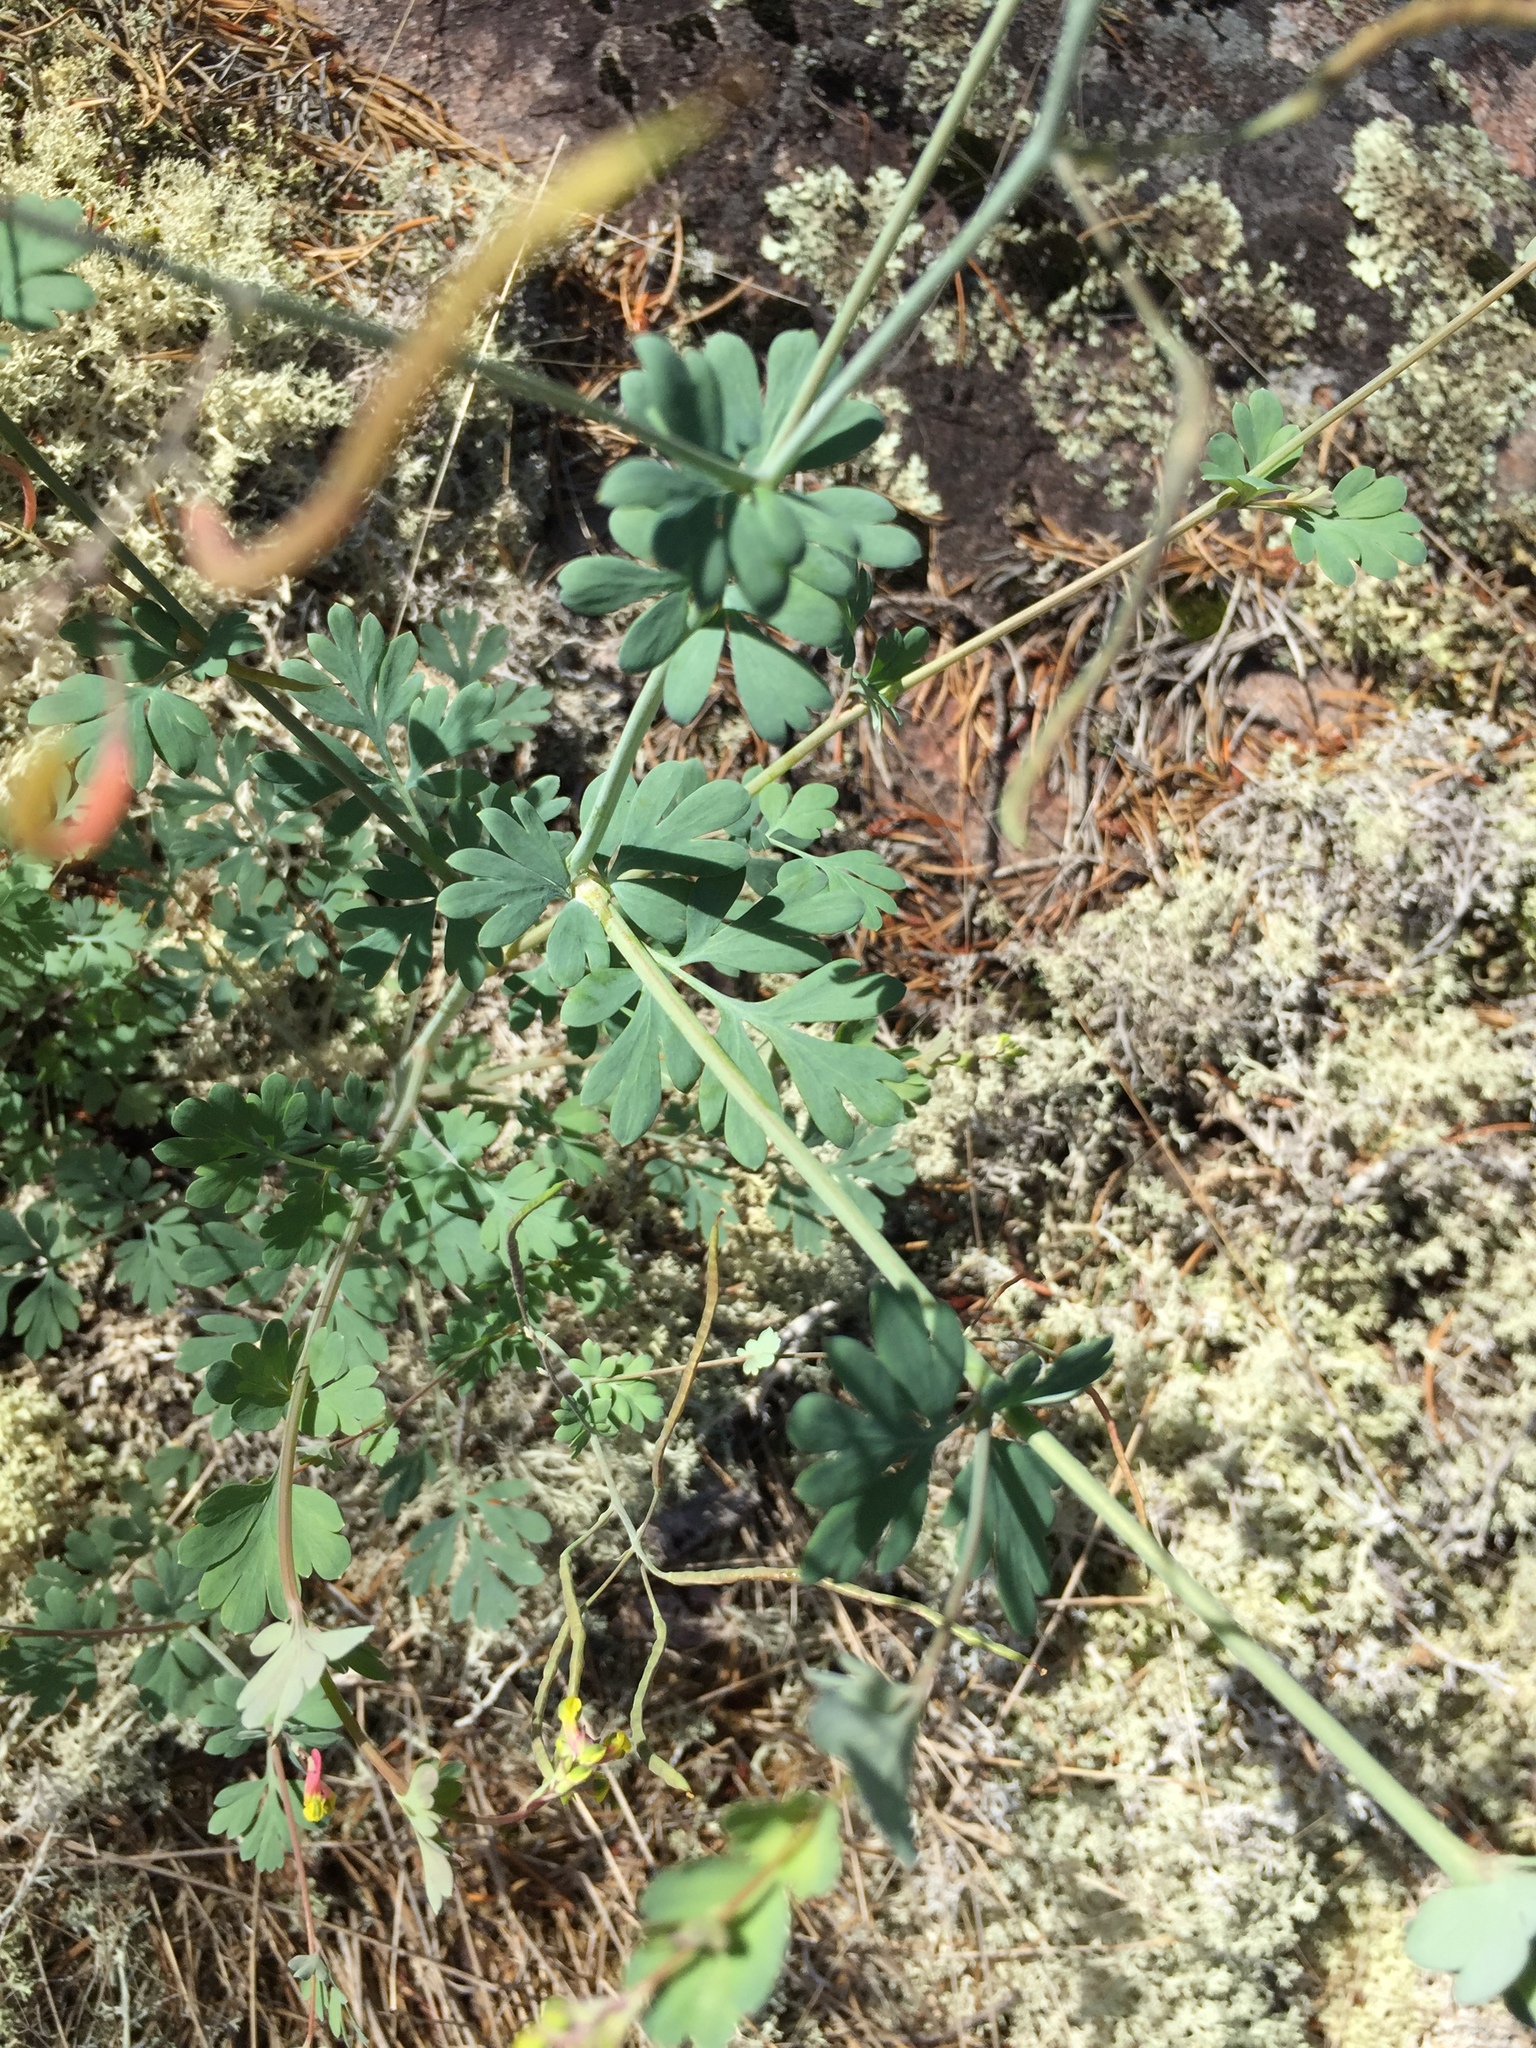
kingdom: Plantae
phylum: Tracheophyta
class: Magnoliopsida
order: Ranunculales
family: Papaveraceae
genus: Capnoides
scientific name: Capnoides sempervirens
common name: Rock harlequin
